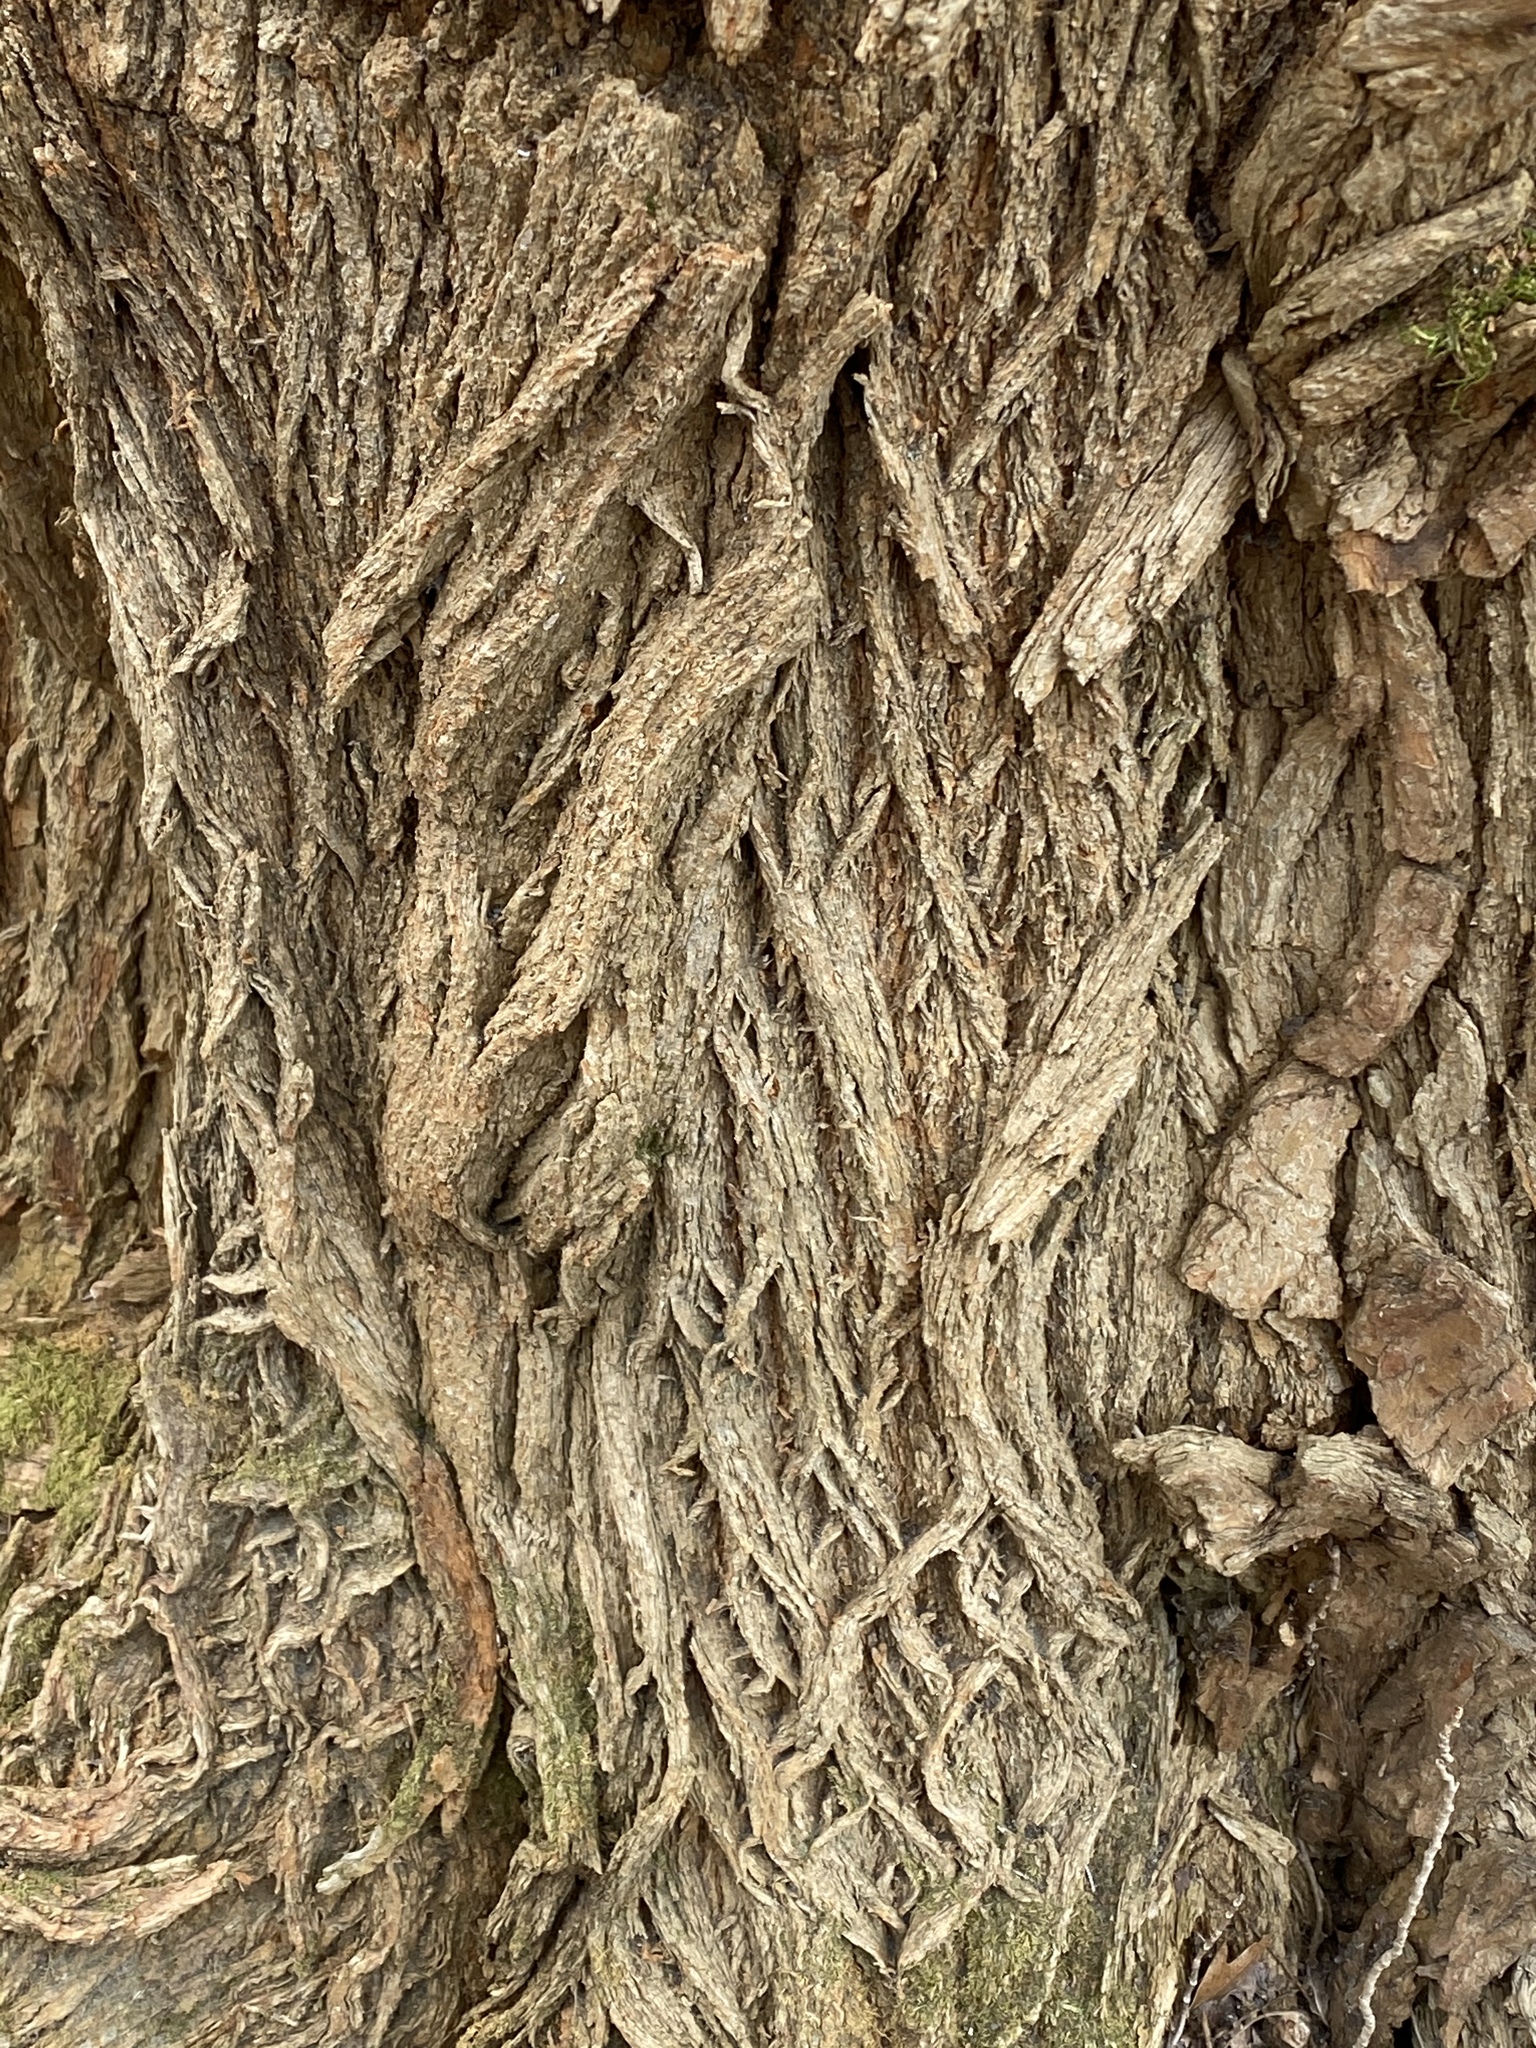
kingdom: Plantae
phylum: Tracheophyta
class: Magnoliopsida
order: Rosales
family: Moraceae
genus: Maclura
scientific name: Maclura pomifera
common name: Osage-orange
